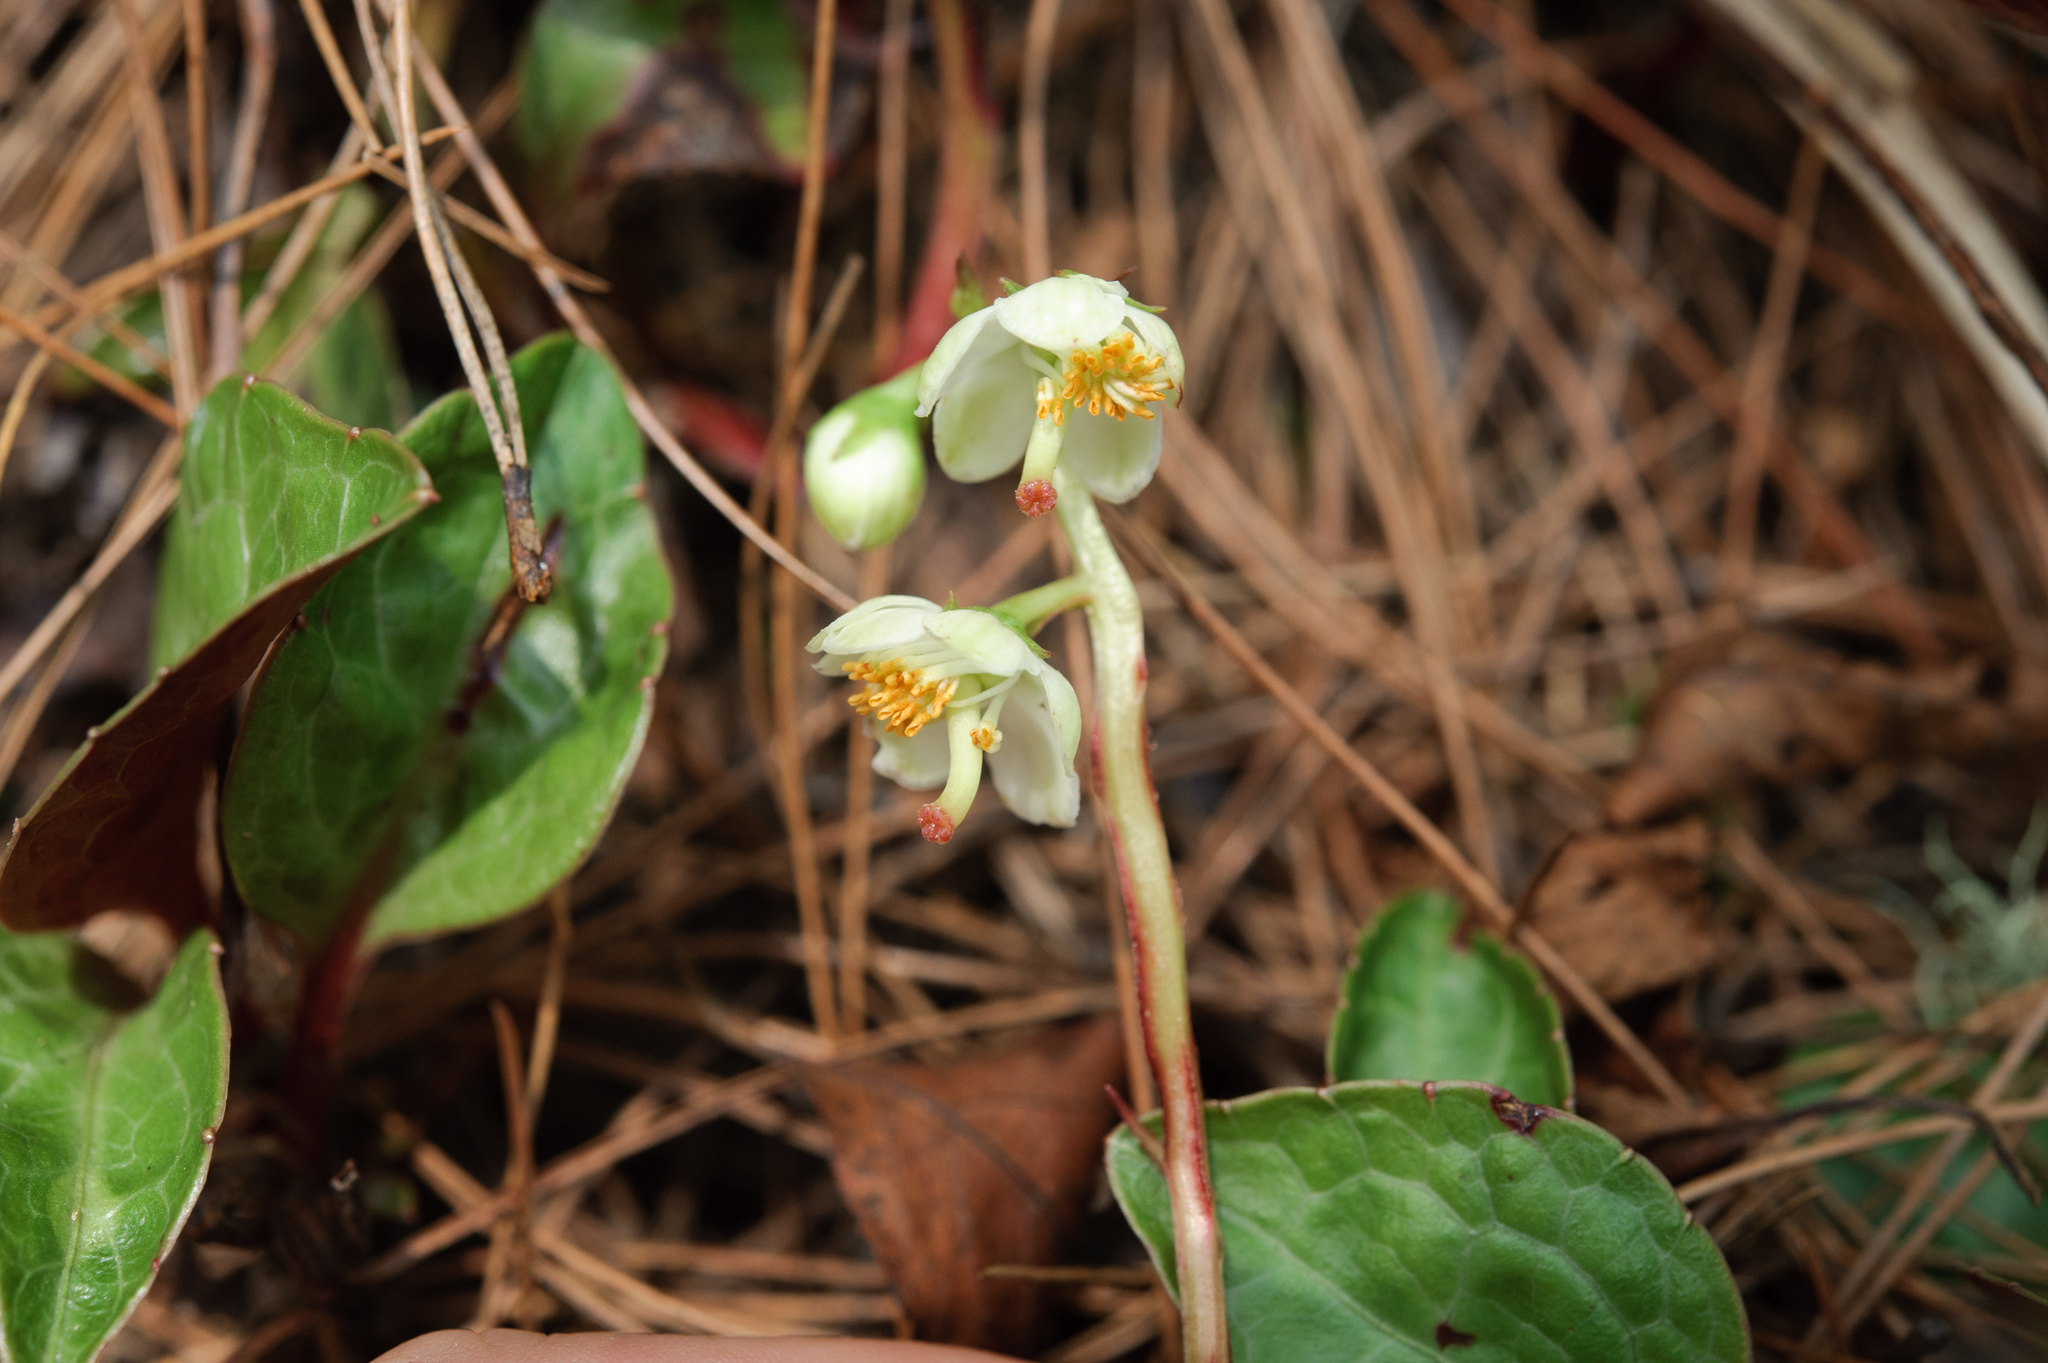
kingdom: Plantae
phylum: Tracheophyta
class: Magnoliopsida
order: Ericales
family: Ericaceae
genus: Pyrola
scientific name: Pyrola japonica
